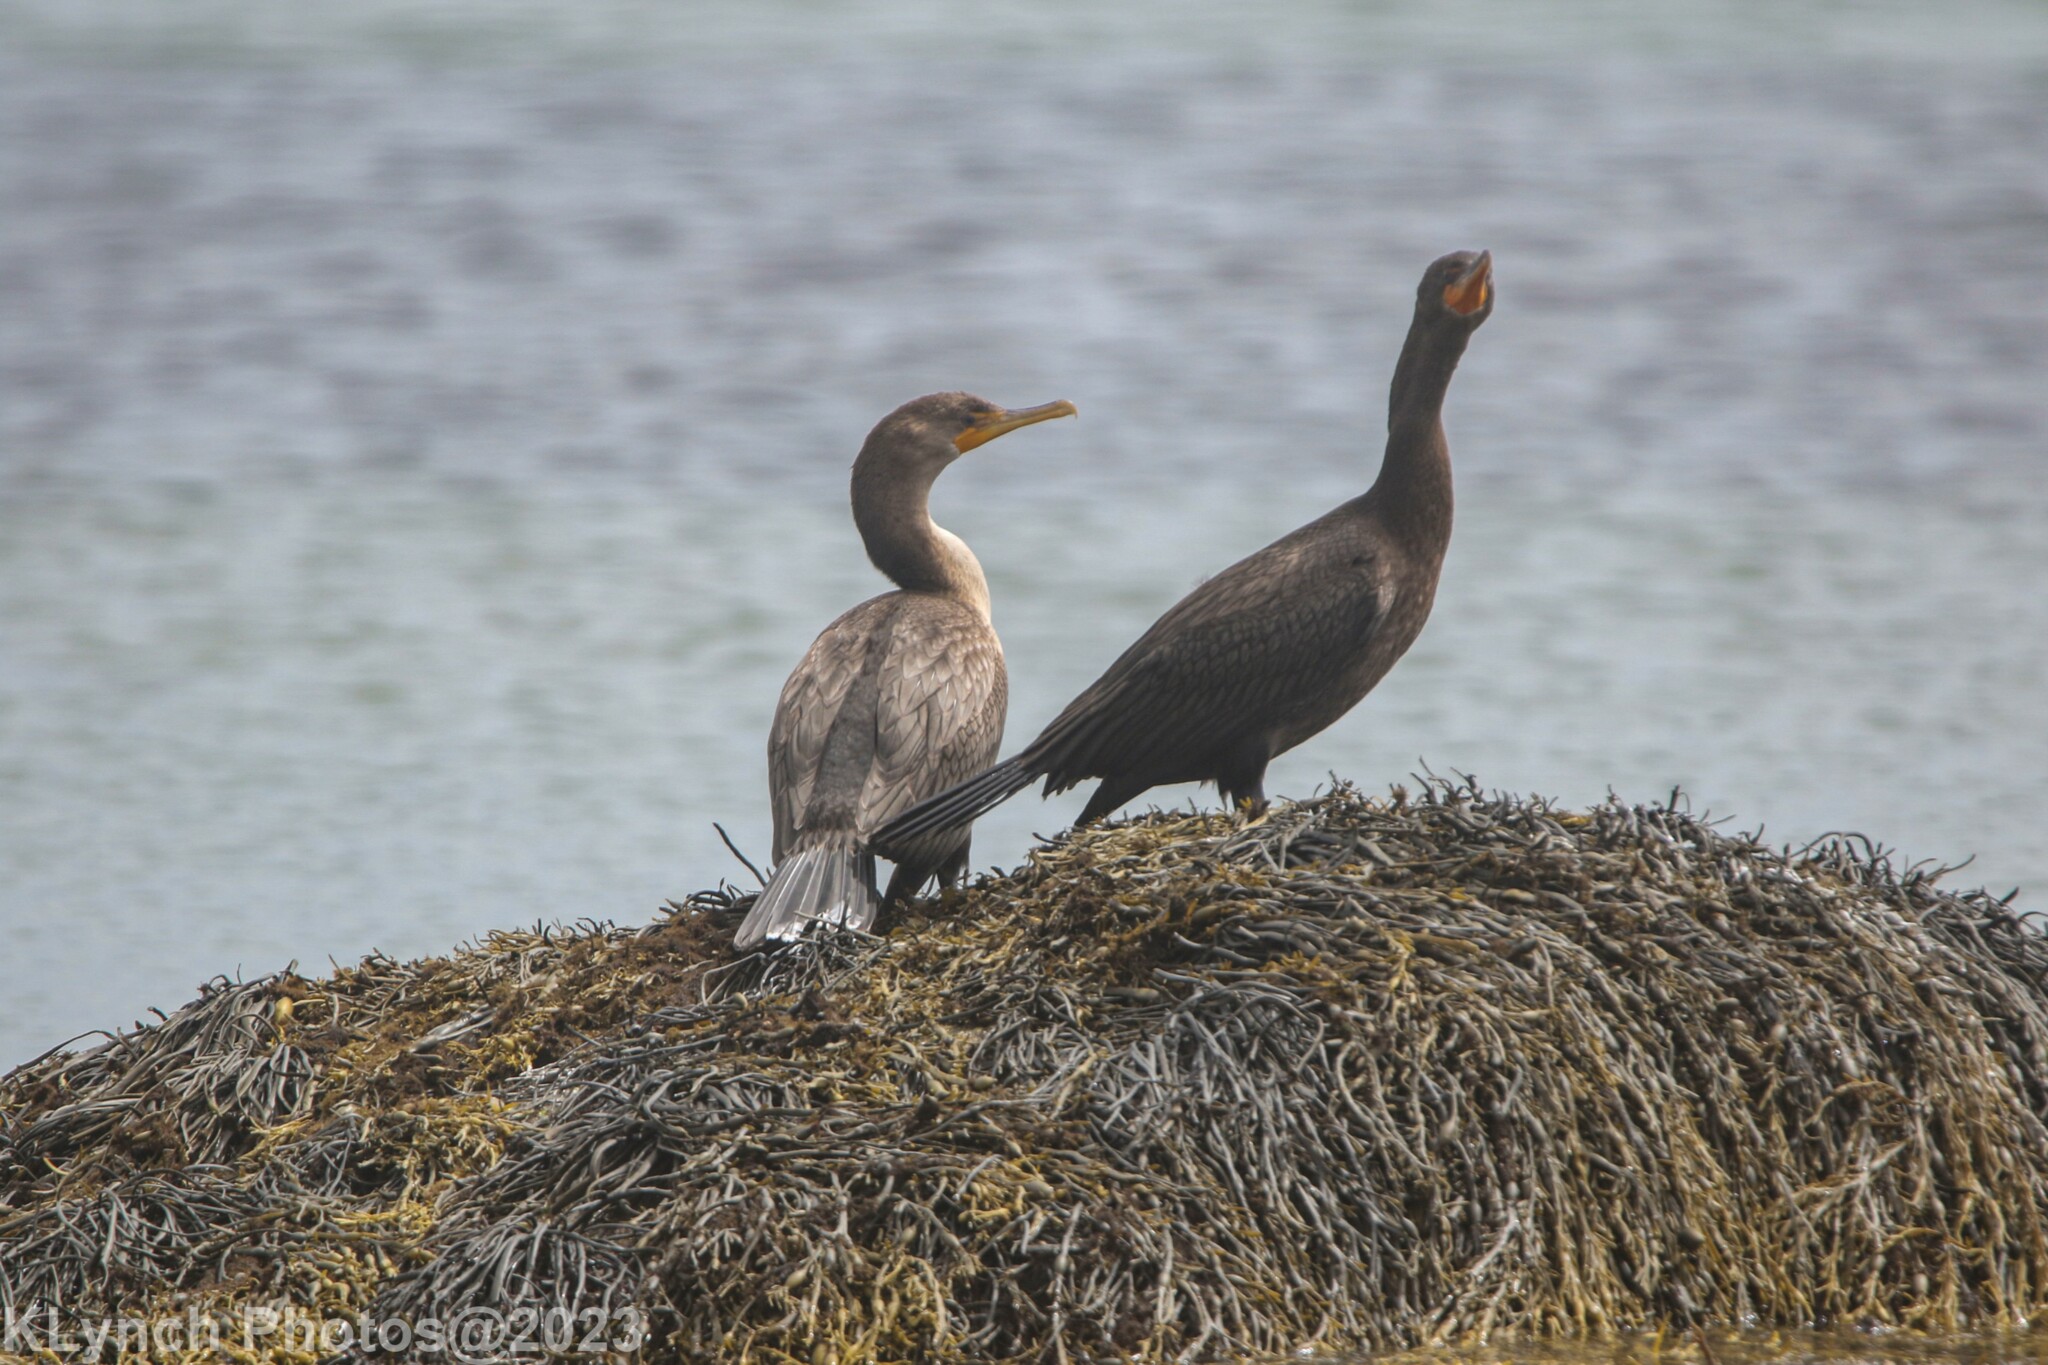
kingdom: Animalia
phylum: Chordata
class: Aves
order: Suliformes
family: Phalacrocoracidae
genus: Phalacrocorax
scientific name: Phalacrocorax auritus
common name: Double-crested cormorant
